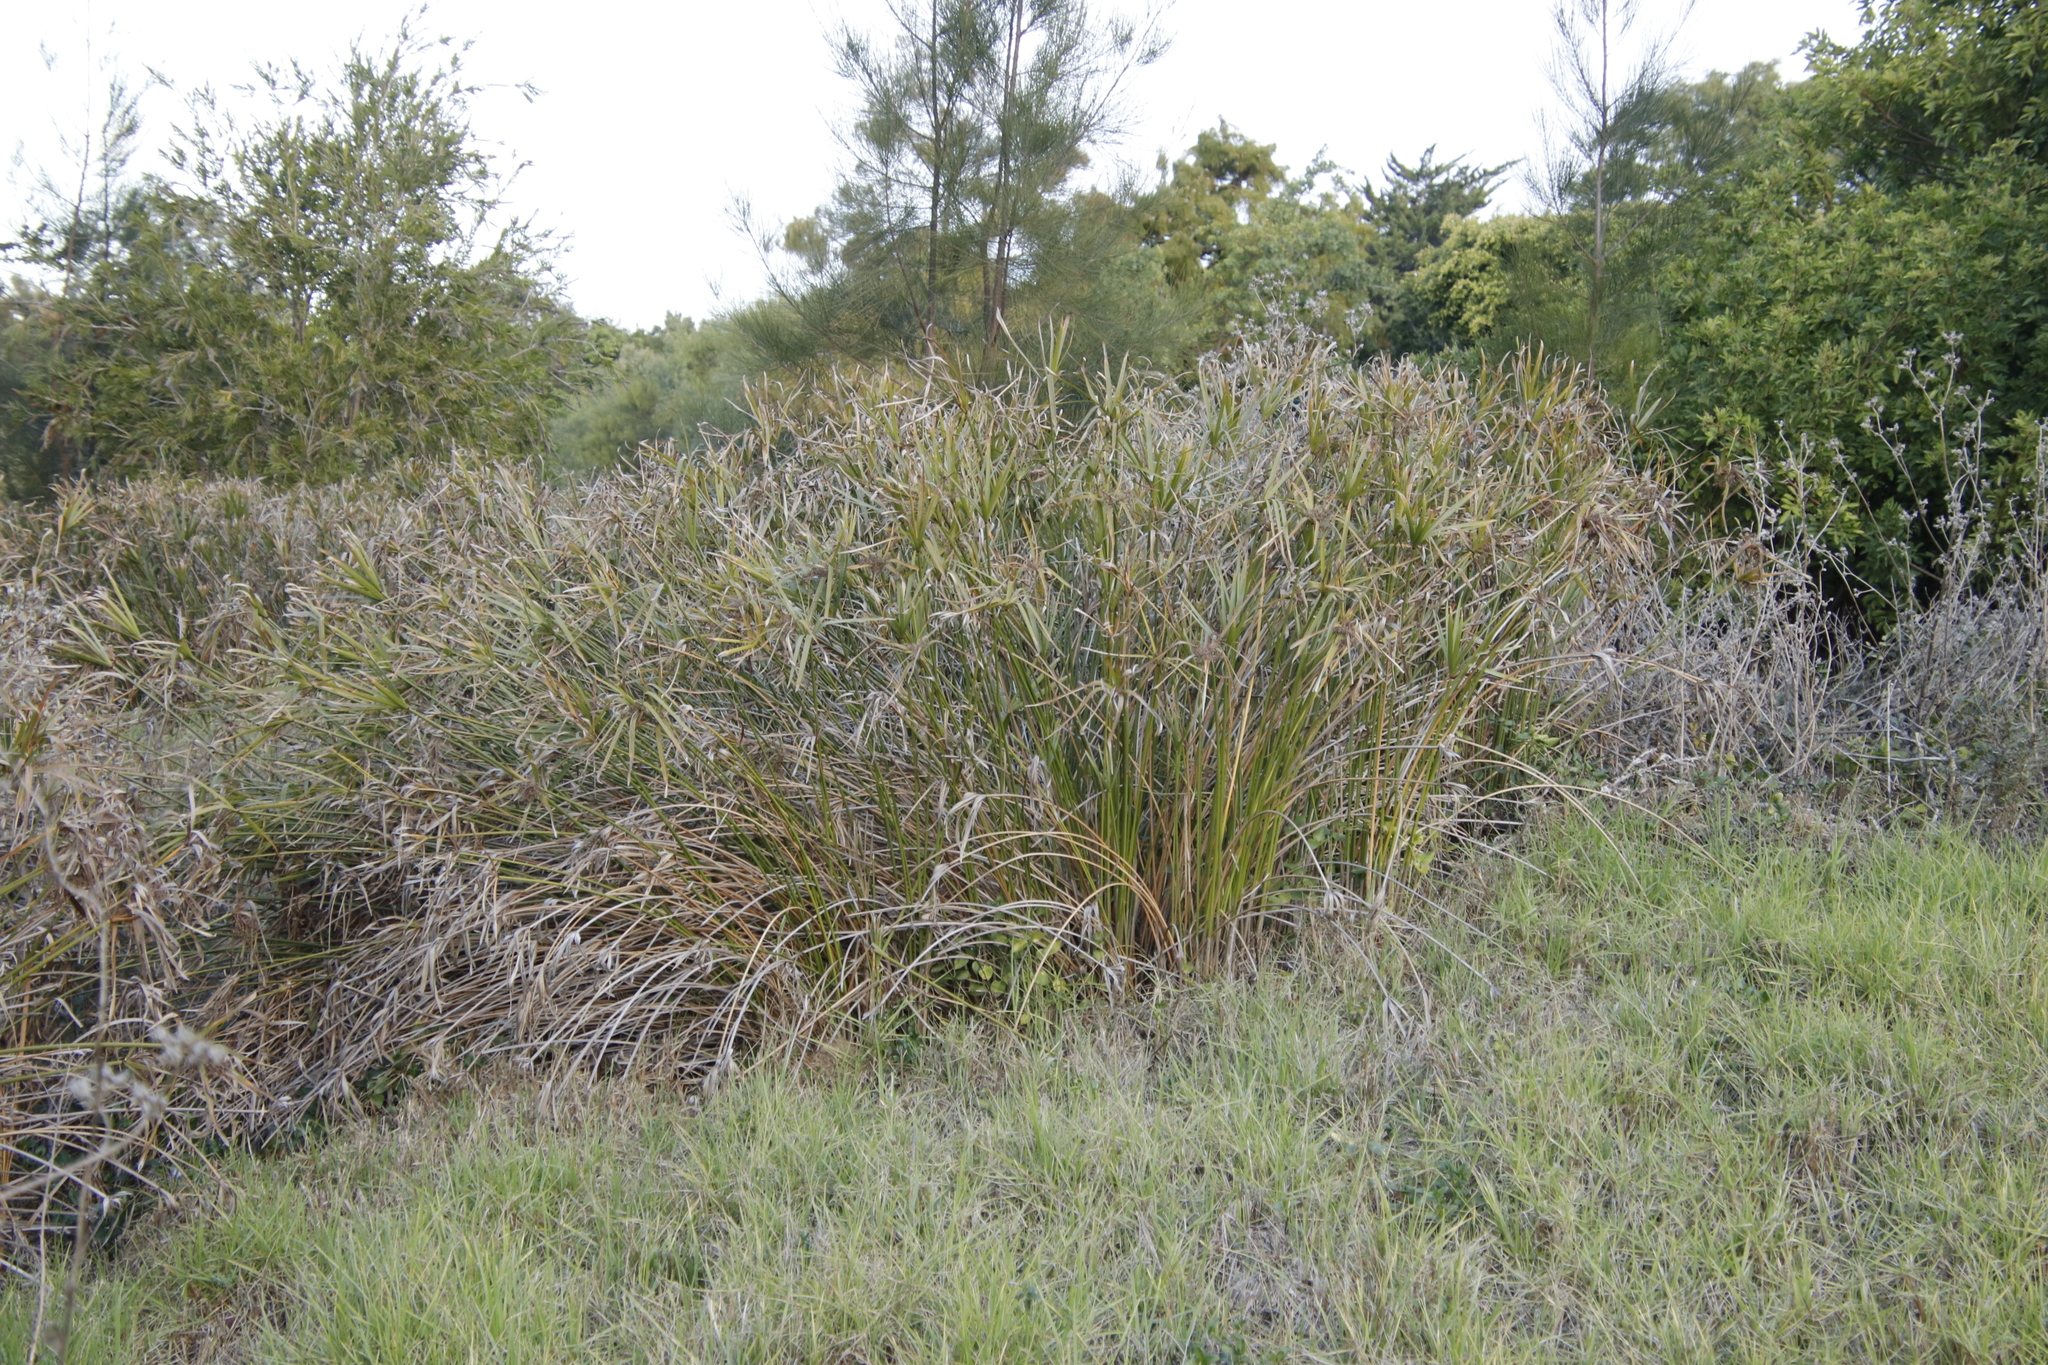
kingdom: Plantae
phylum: Tracheophyta
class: Liliopsida
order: Poales
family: Cyperaceae
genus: Cyperus
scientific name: Cyperus textilis
